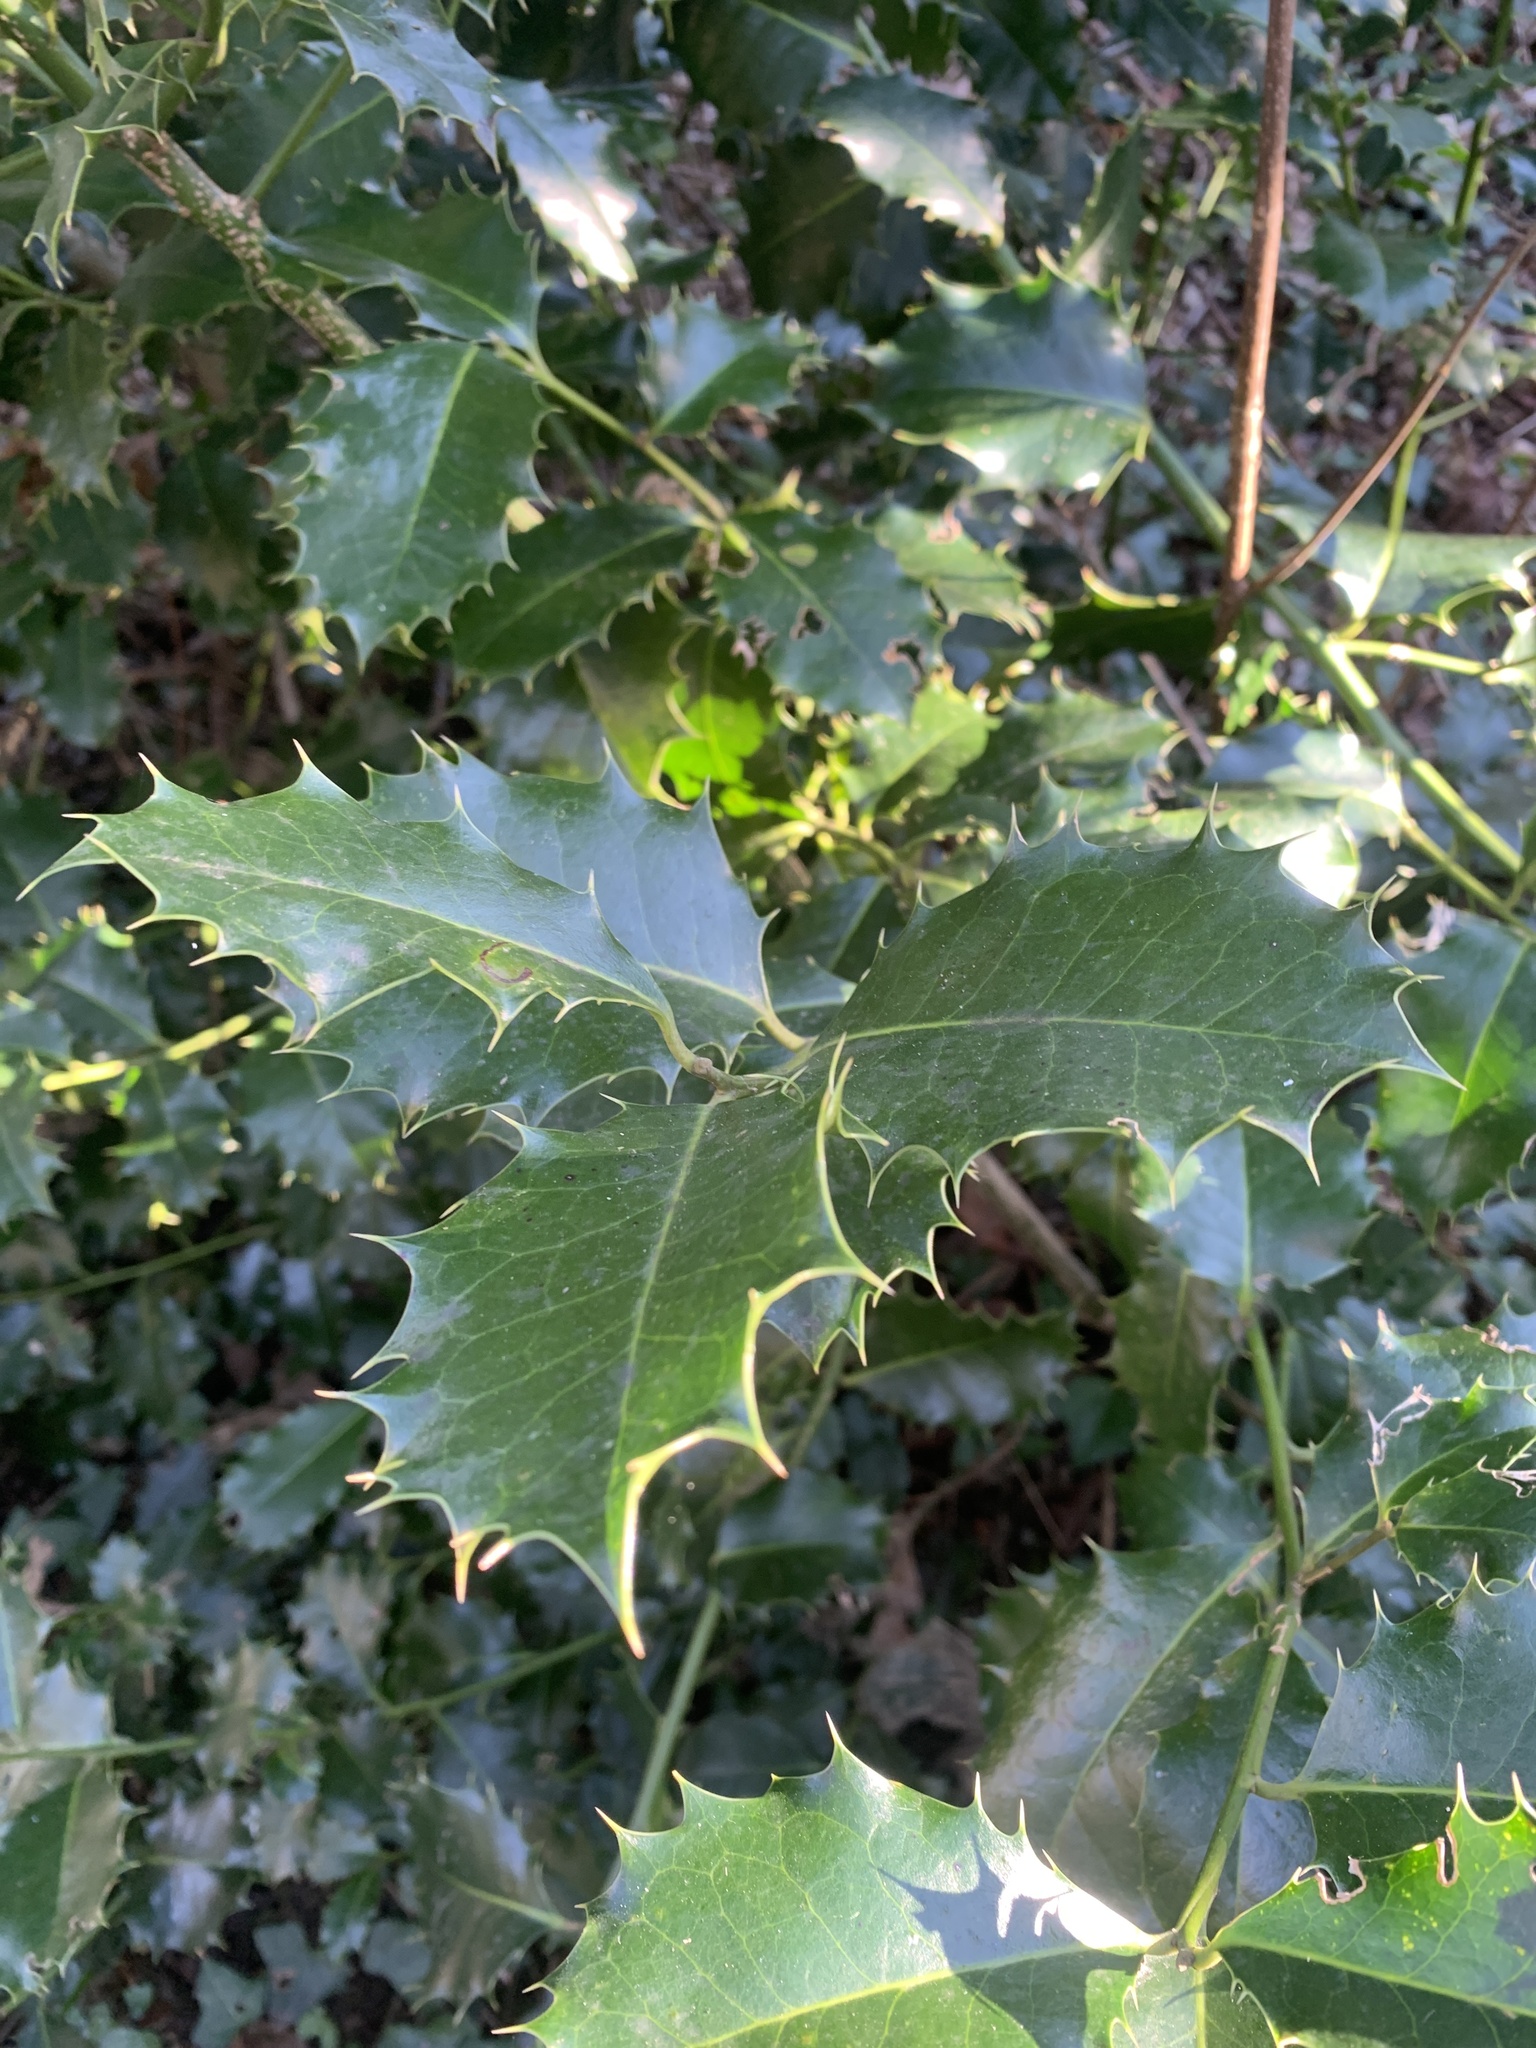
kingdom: Plantae
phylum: Tracheophyta
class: Magnoliopsida
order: Aquifoliales
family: Aquifoliaceae
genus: Ilex
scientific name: Ilex aquifolium
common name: English holly
